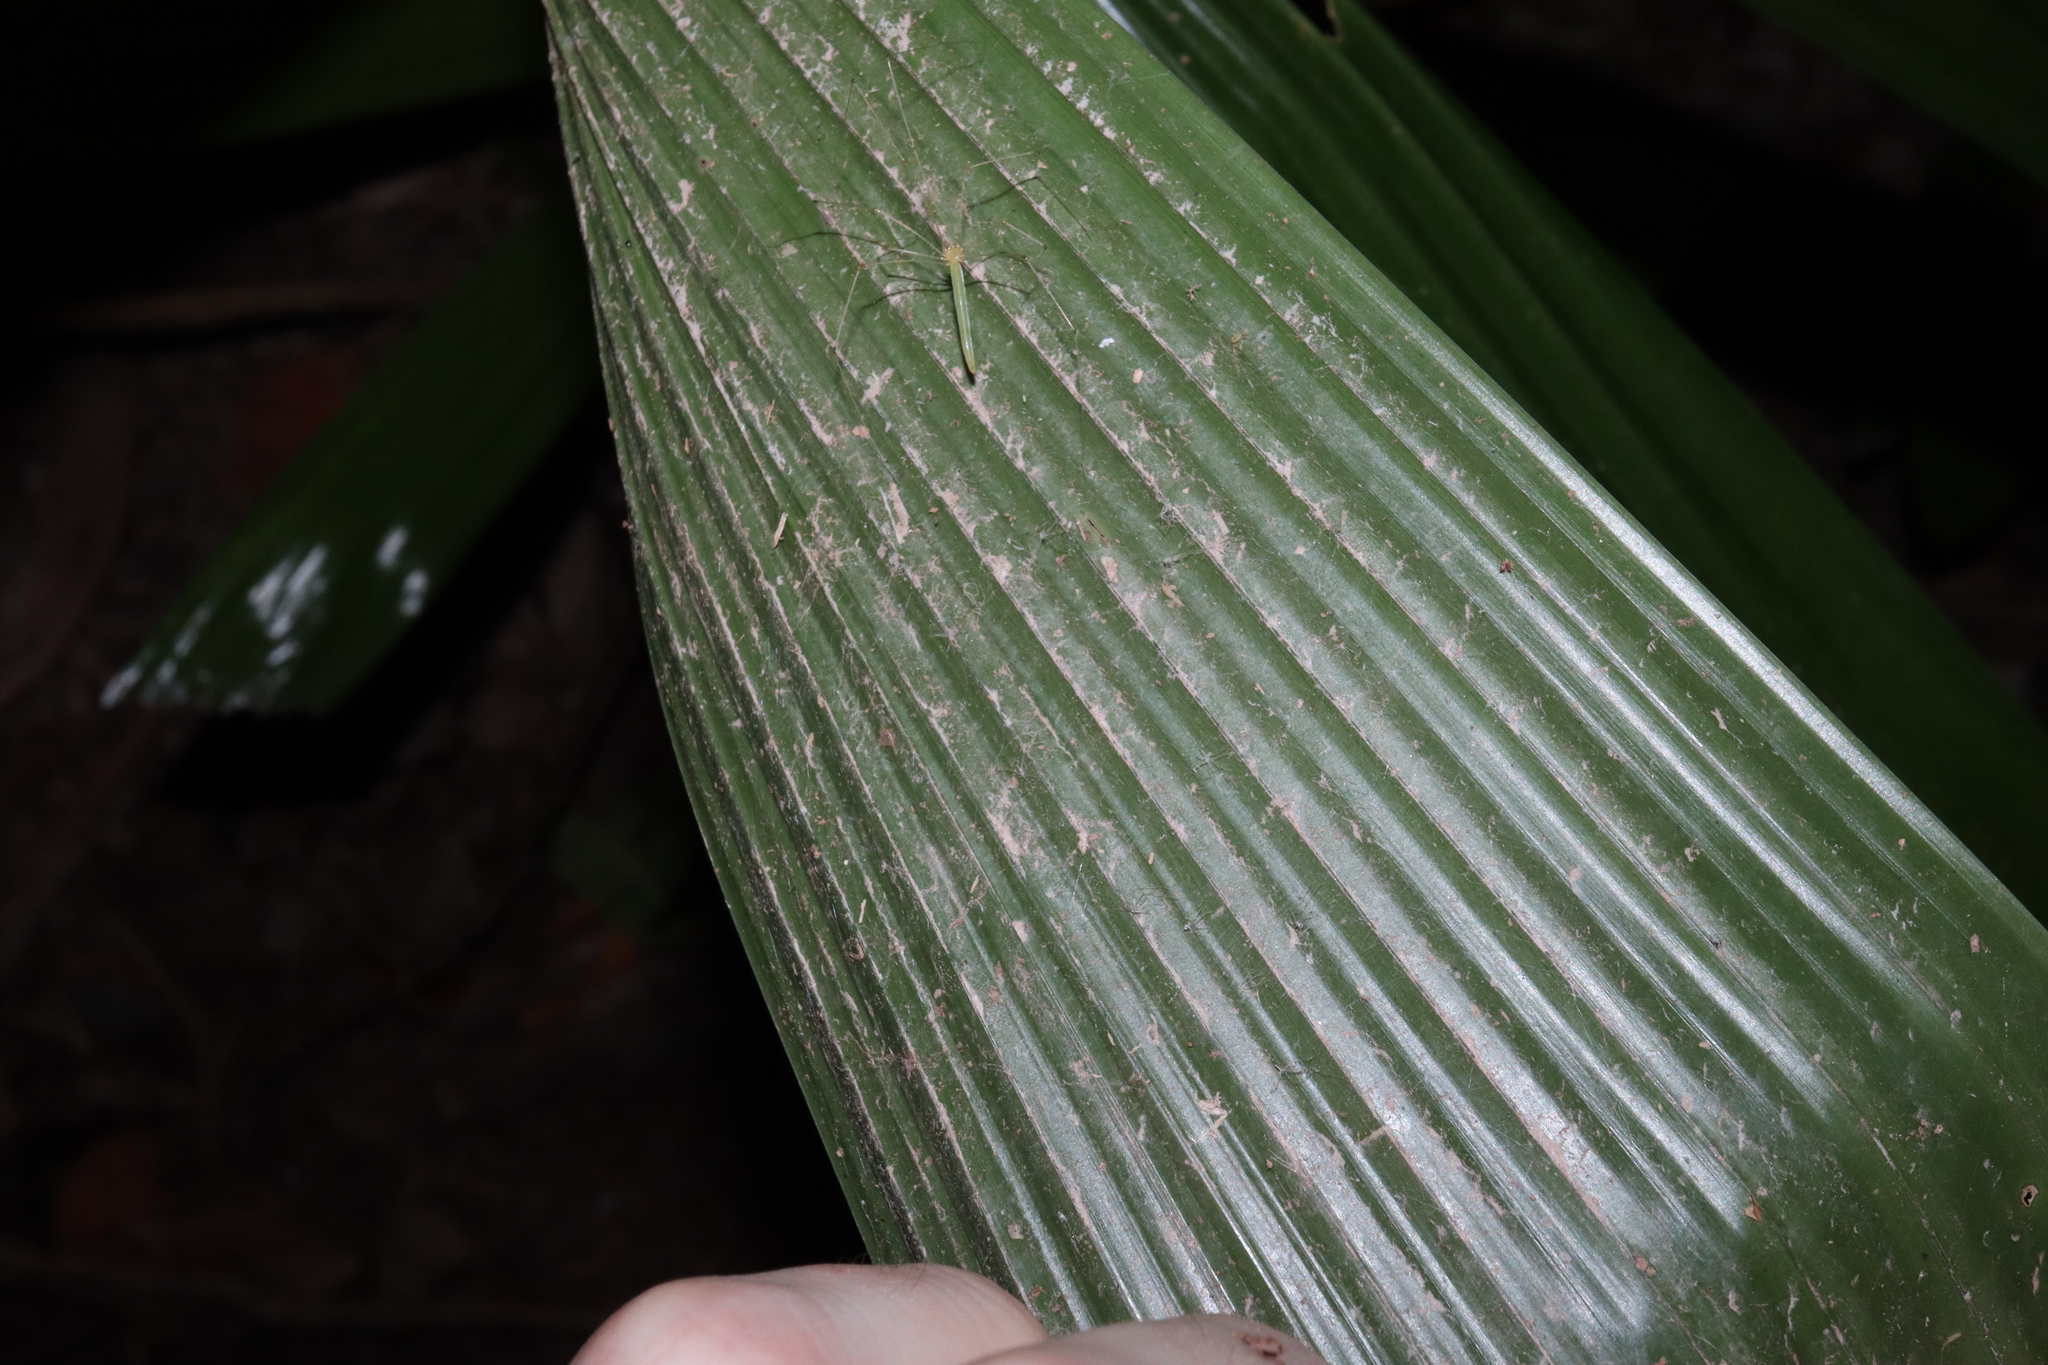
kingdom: Plantae
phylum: Tracheophyta
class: Liliopsida
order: Arecales
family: Arecaceae
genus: Licuala
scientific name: Licuala ramsayi
